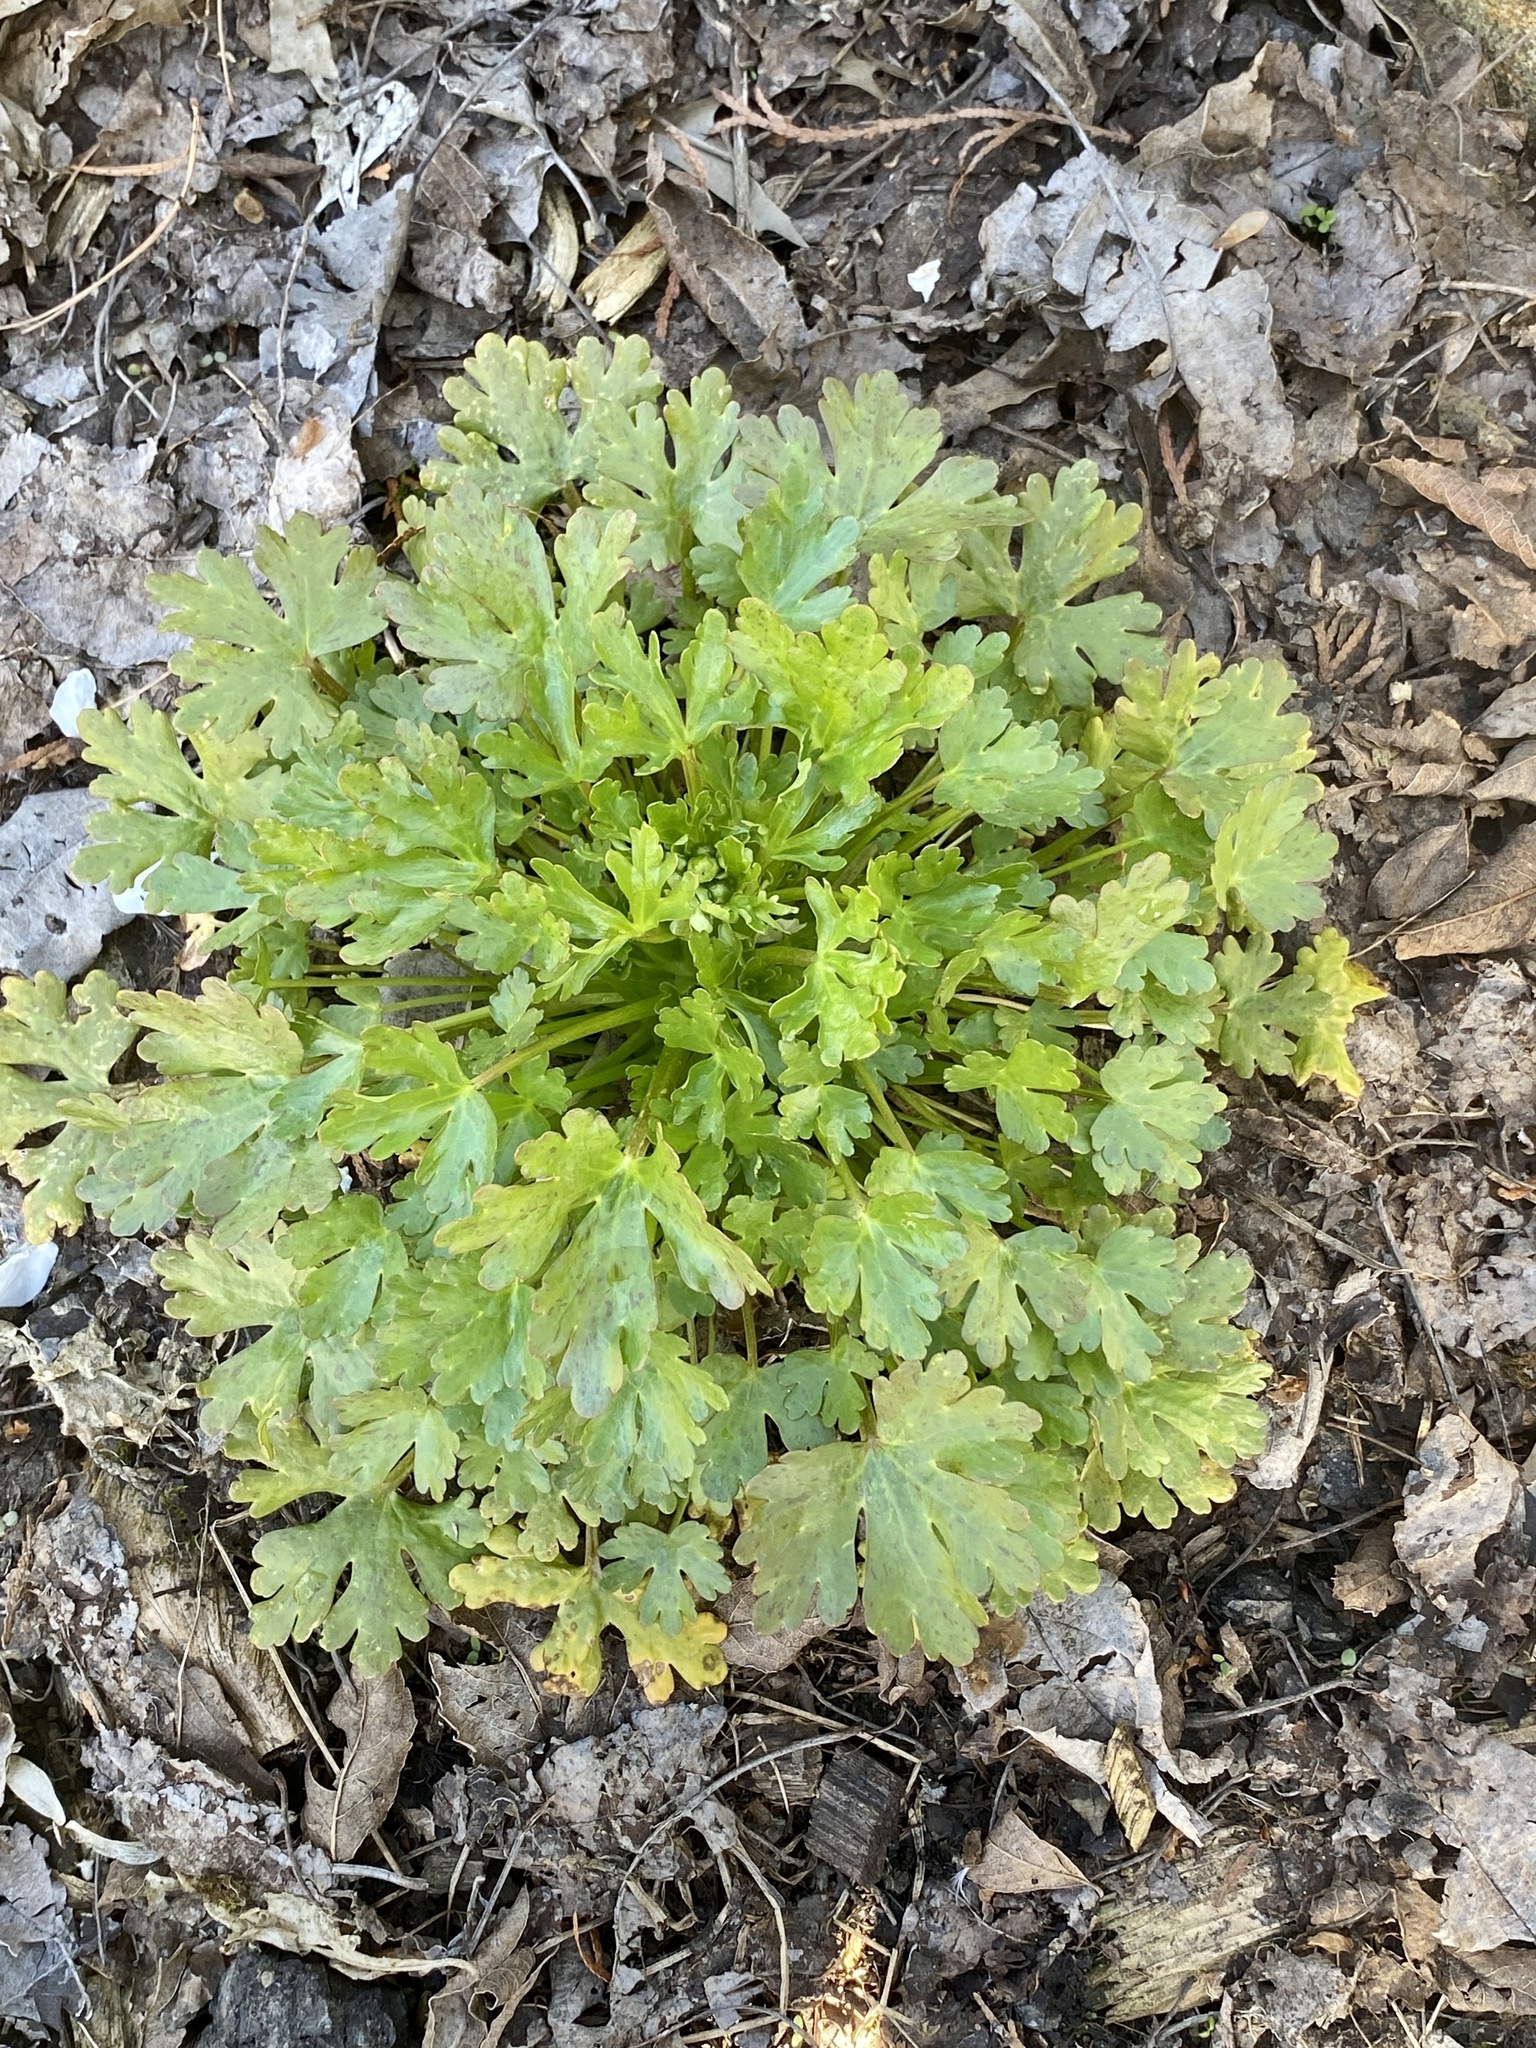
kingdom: Plantae
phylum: Tracheophyta
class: Magnoliopsida
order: Ranunculales
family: Ranunculaceae
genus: Ranunculus
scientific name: Ranunculus sceleratus
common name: Celery-leaved buttercup
